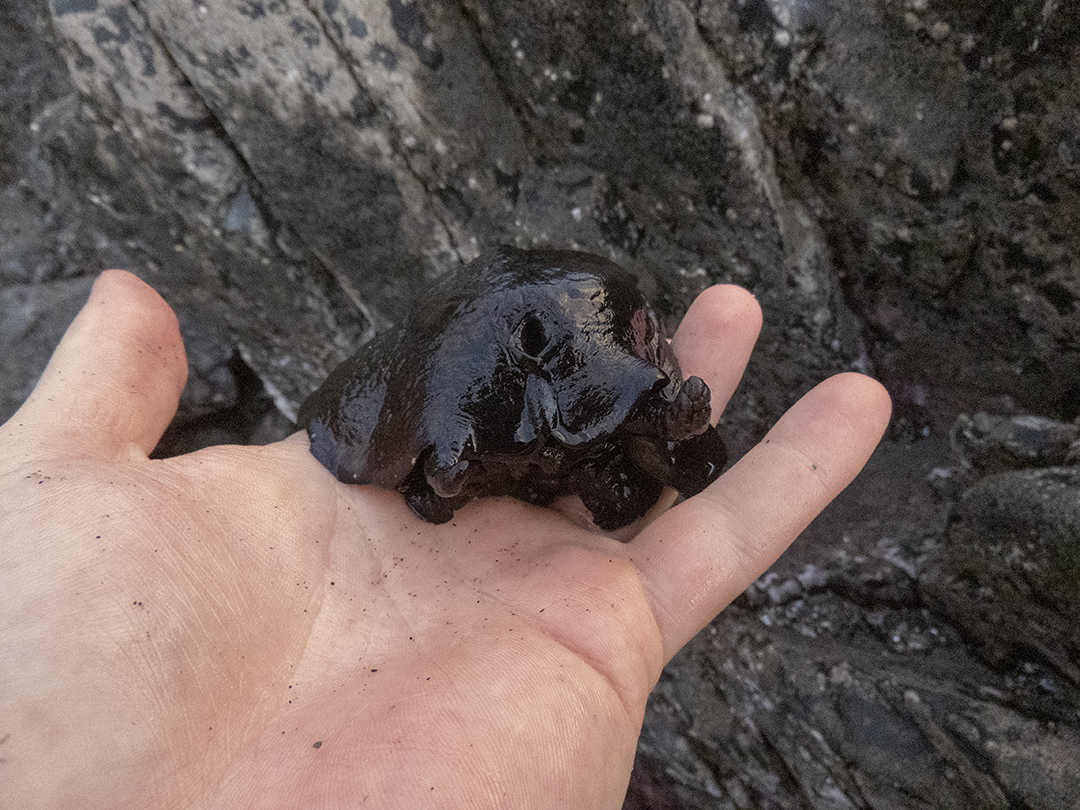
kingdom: Animalia
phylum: Mollusca
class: Gastropoda
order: Lepetellida
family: Fissurellidae
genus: Scutus
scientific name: Scutus breviculus
